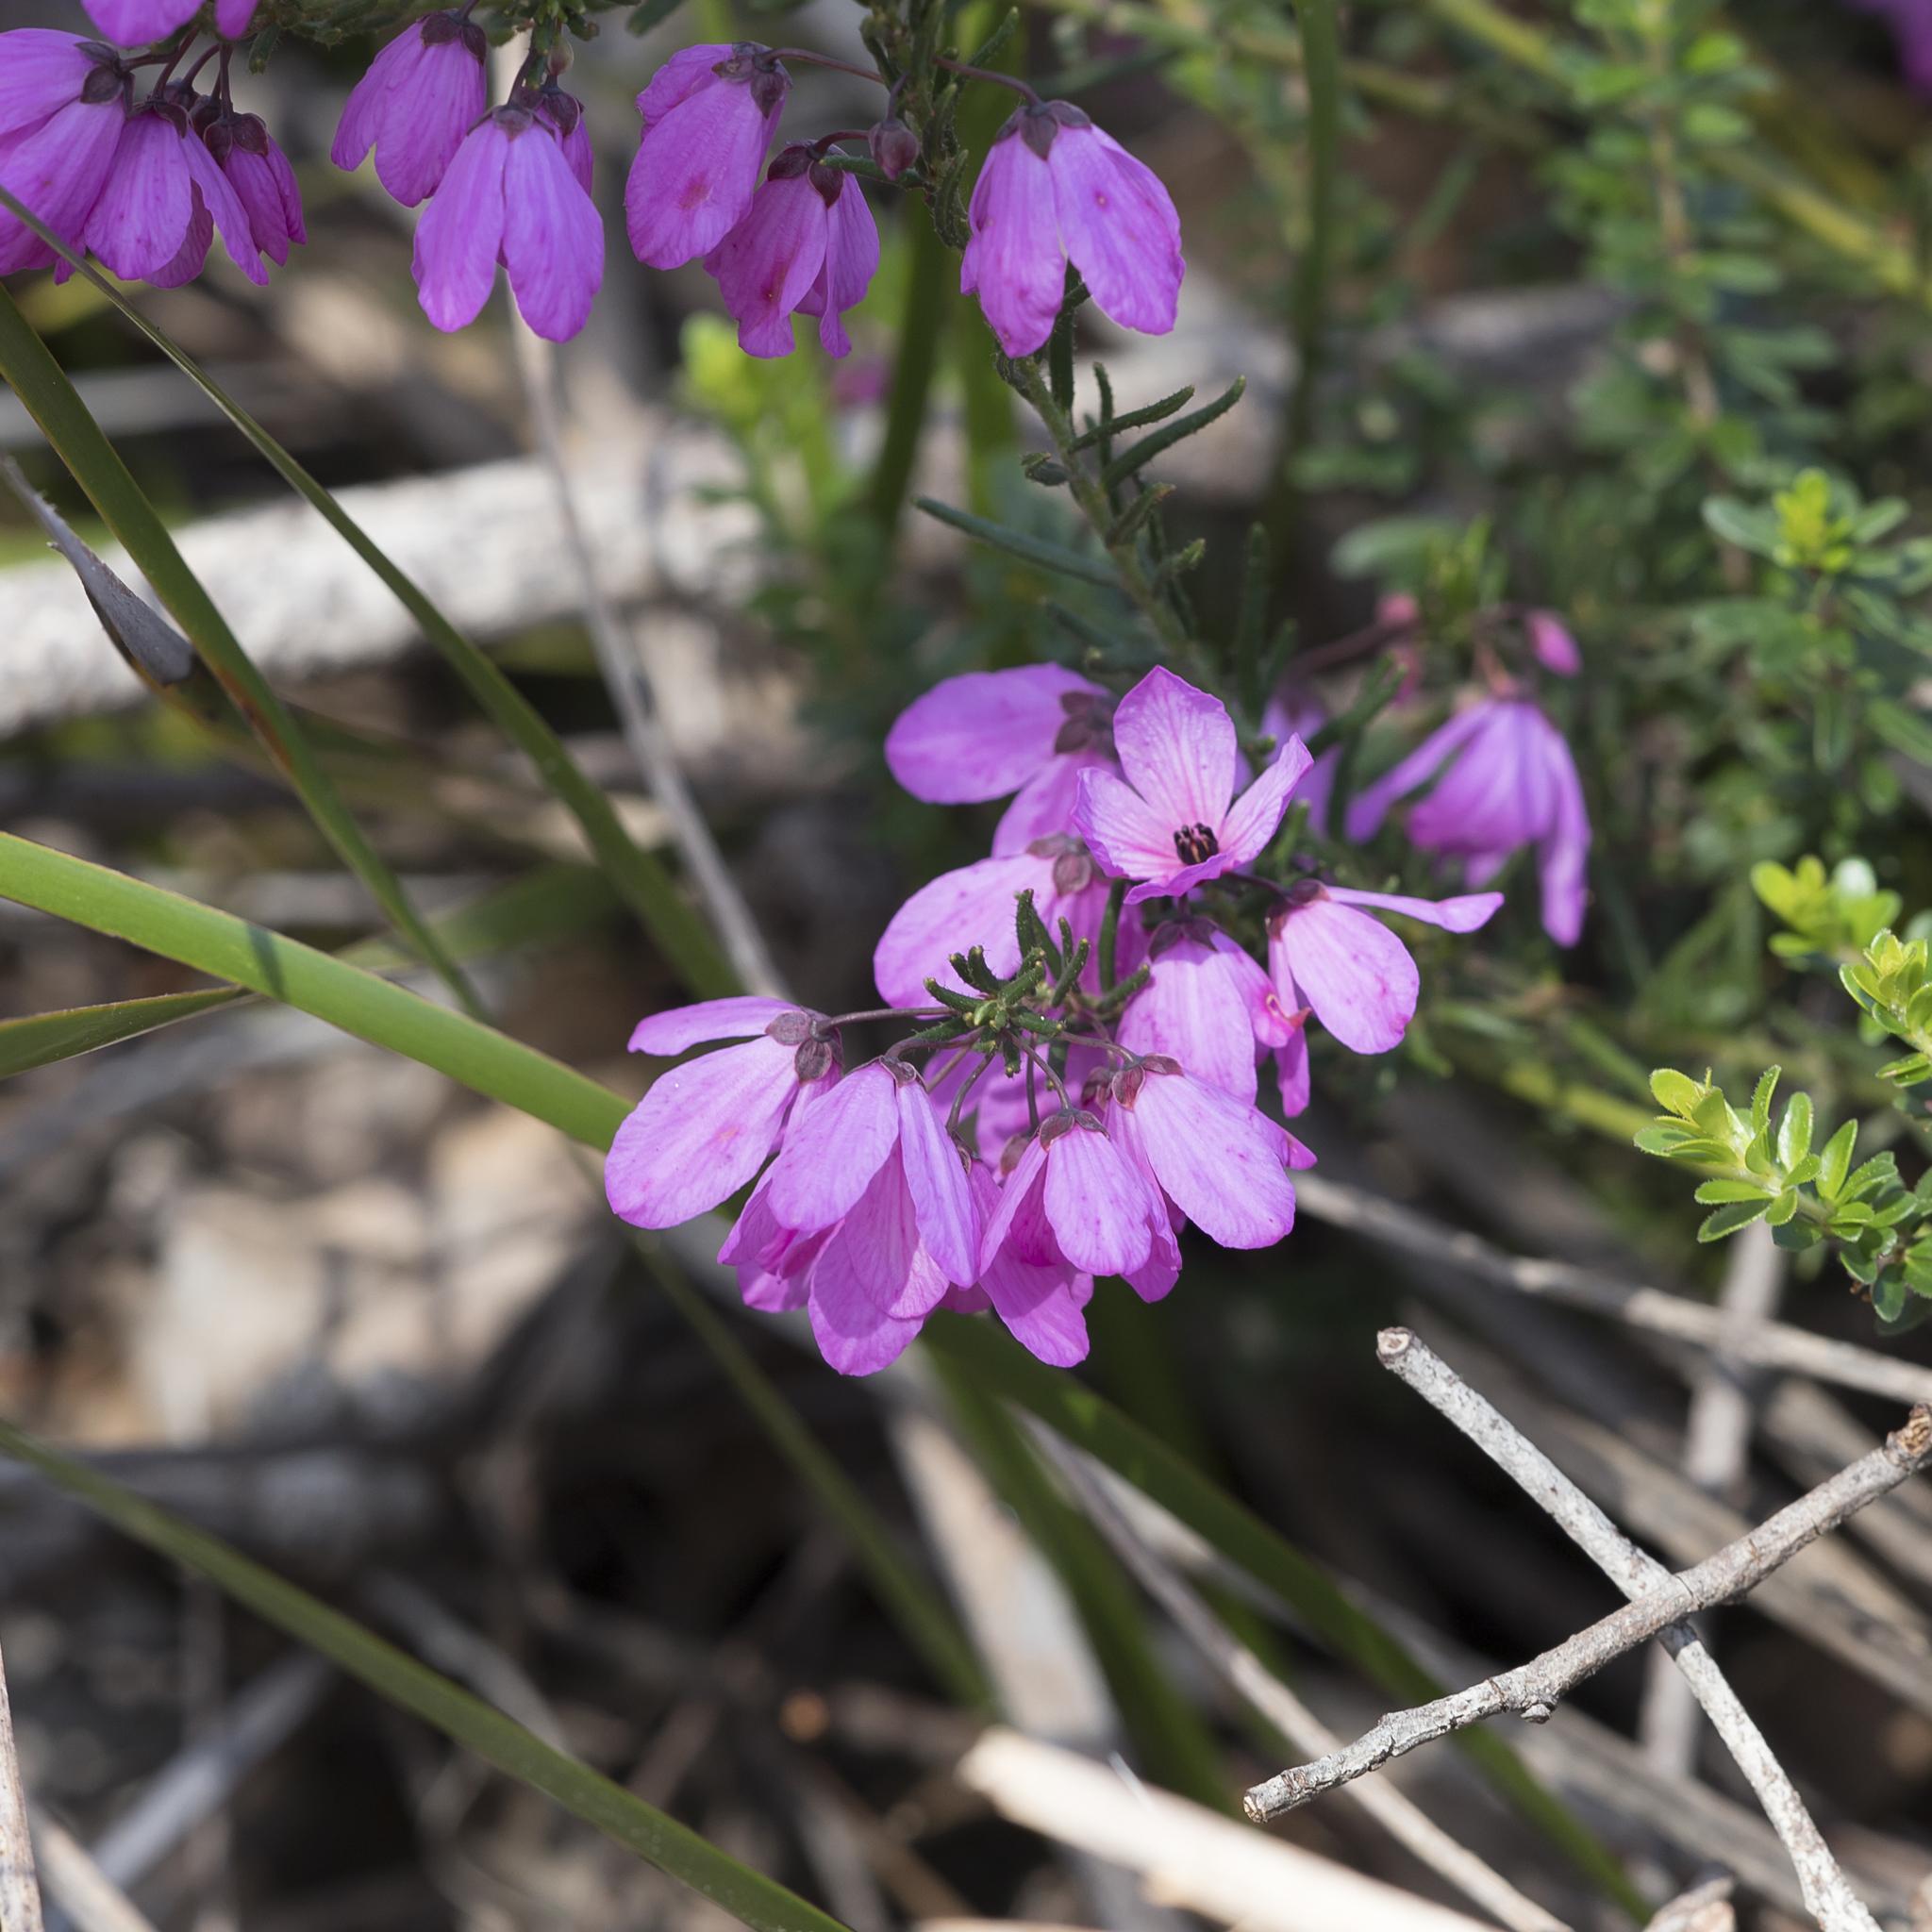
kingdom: Plantae
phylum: Tracheophyta
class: Magnoliopsida
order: Oxalidales
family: Elaeocarpaceae
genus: Tetratheca
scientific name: Tetratheca pilosa
